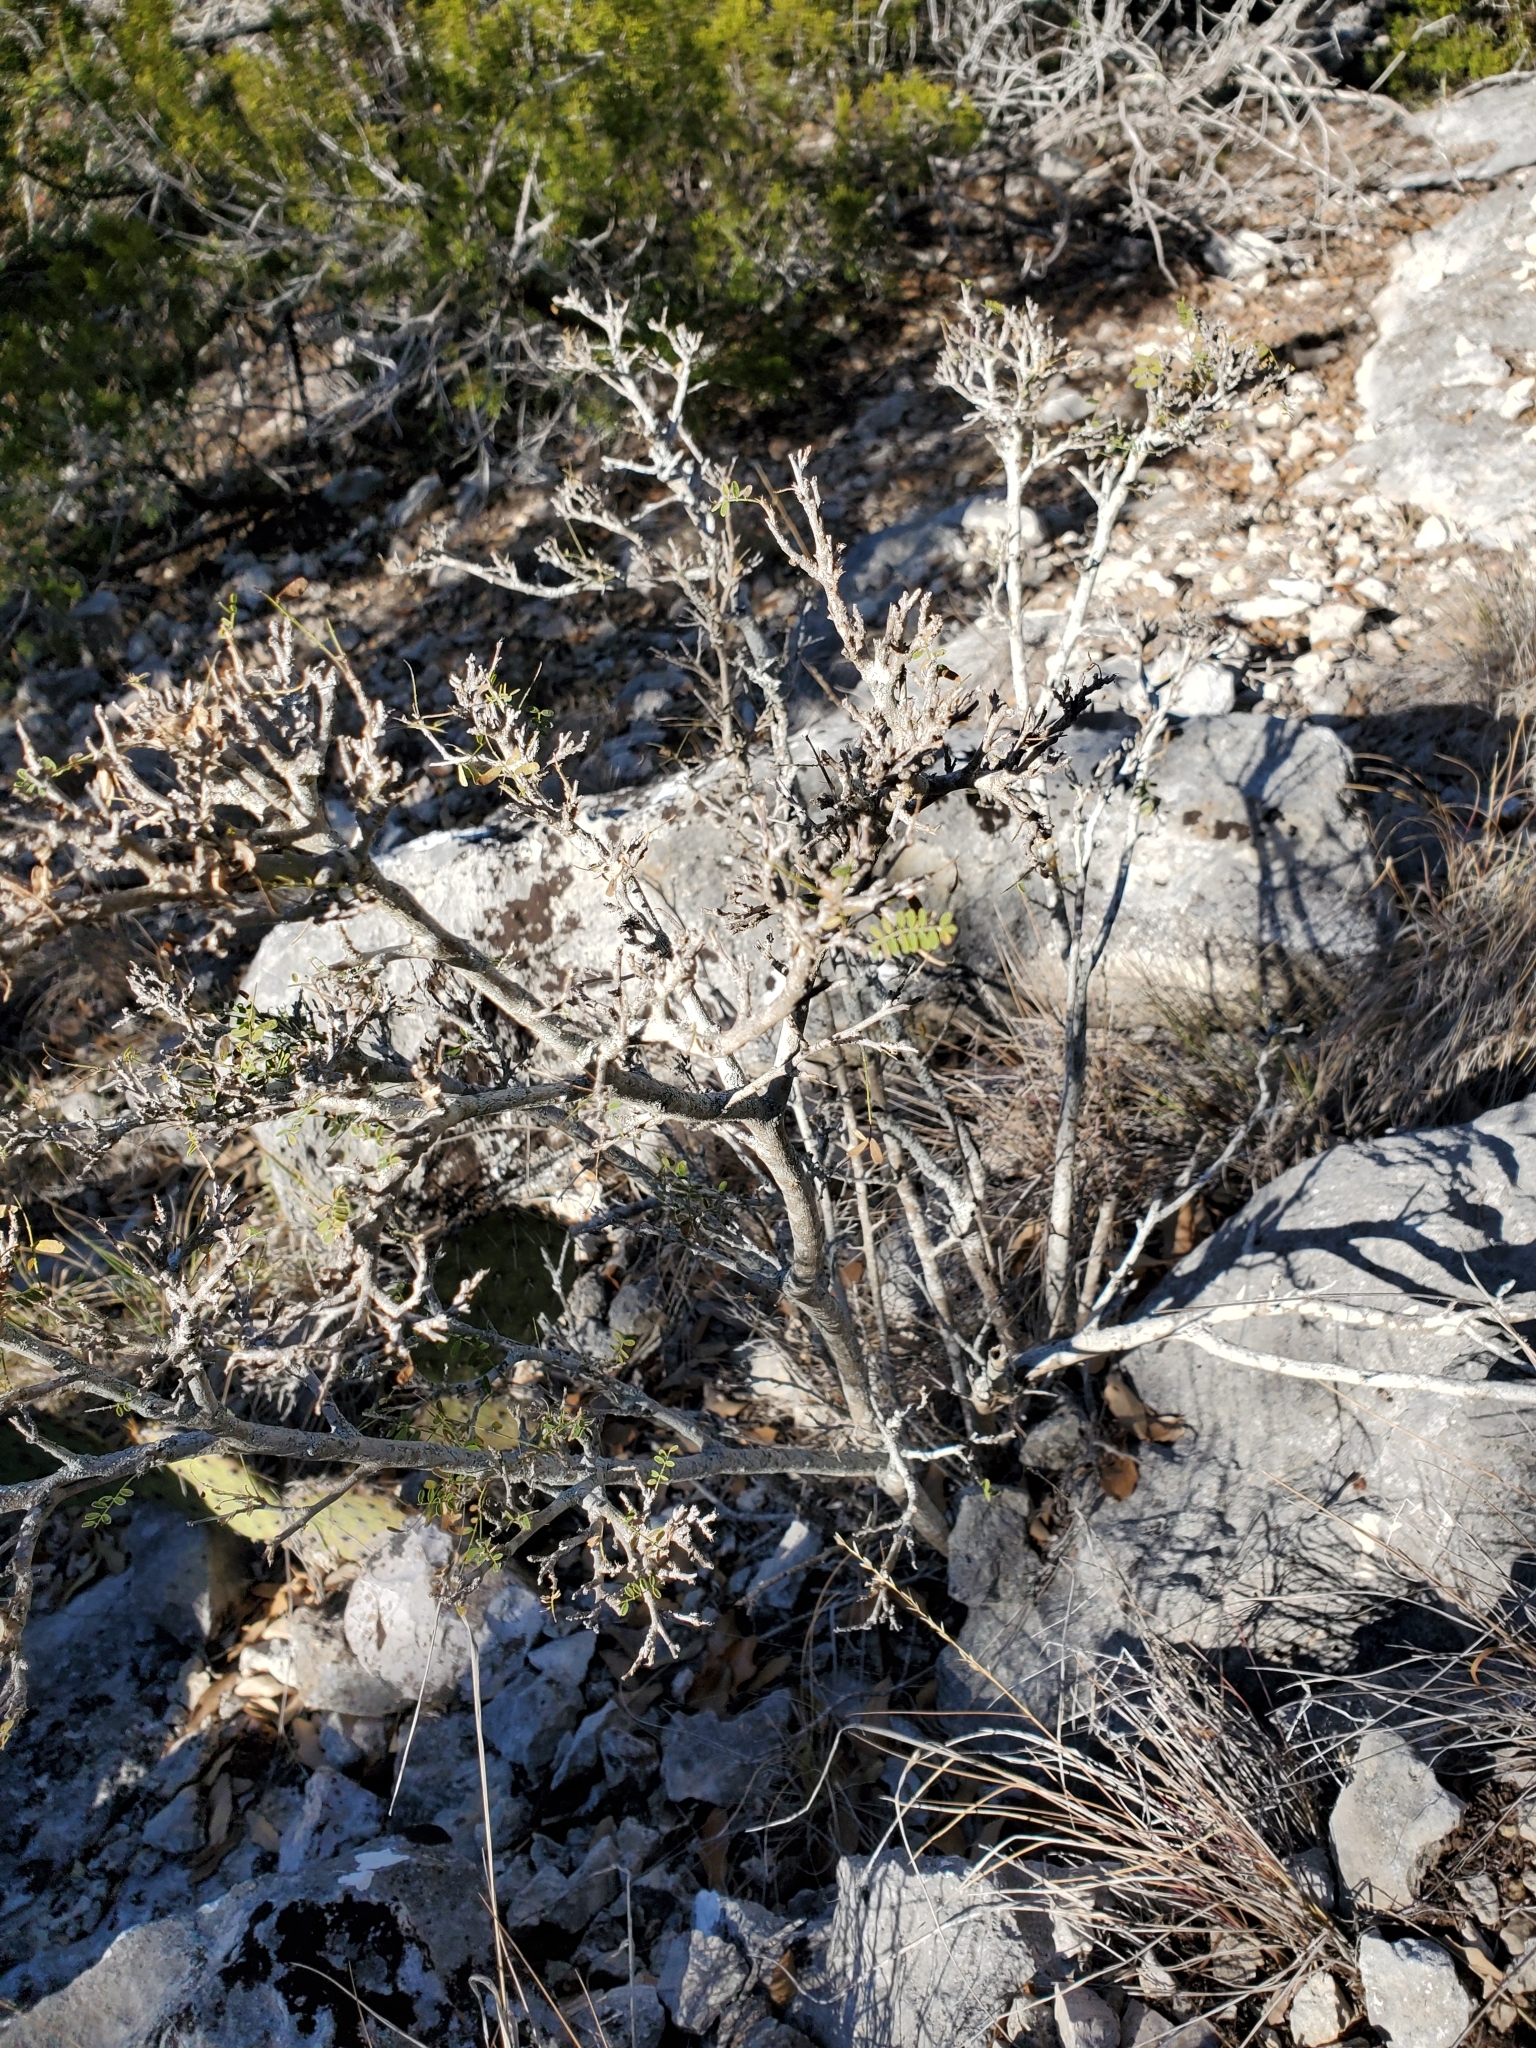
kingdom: Plantae
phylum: Tracheophyta
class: Magnoliopsida
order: Fabales
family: Fabaceae
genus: Eysenhardtia
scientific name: Eysenhardtia texana
